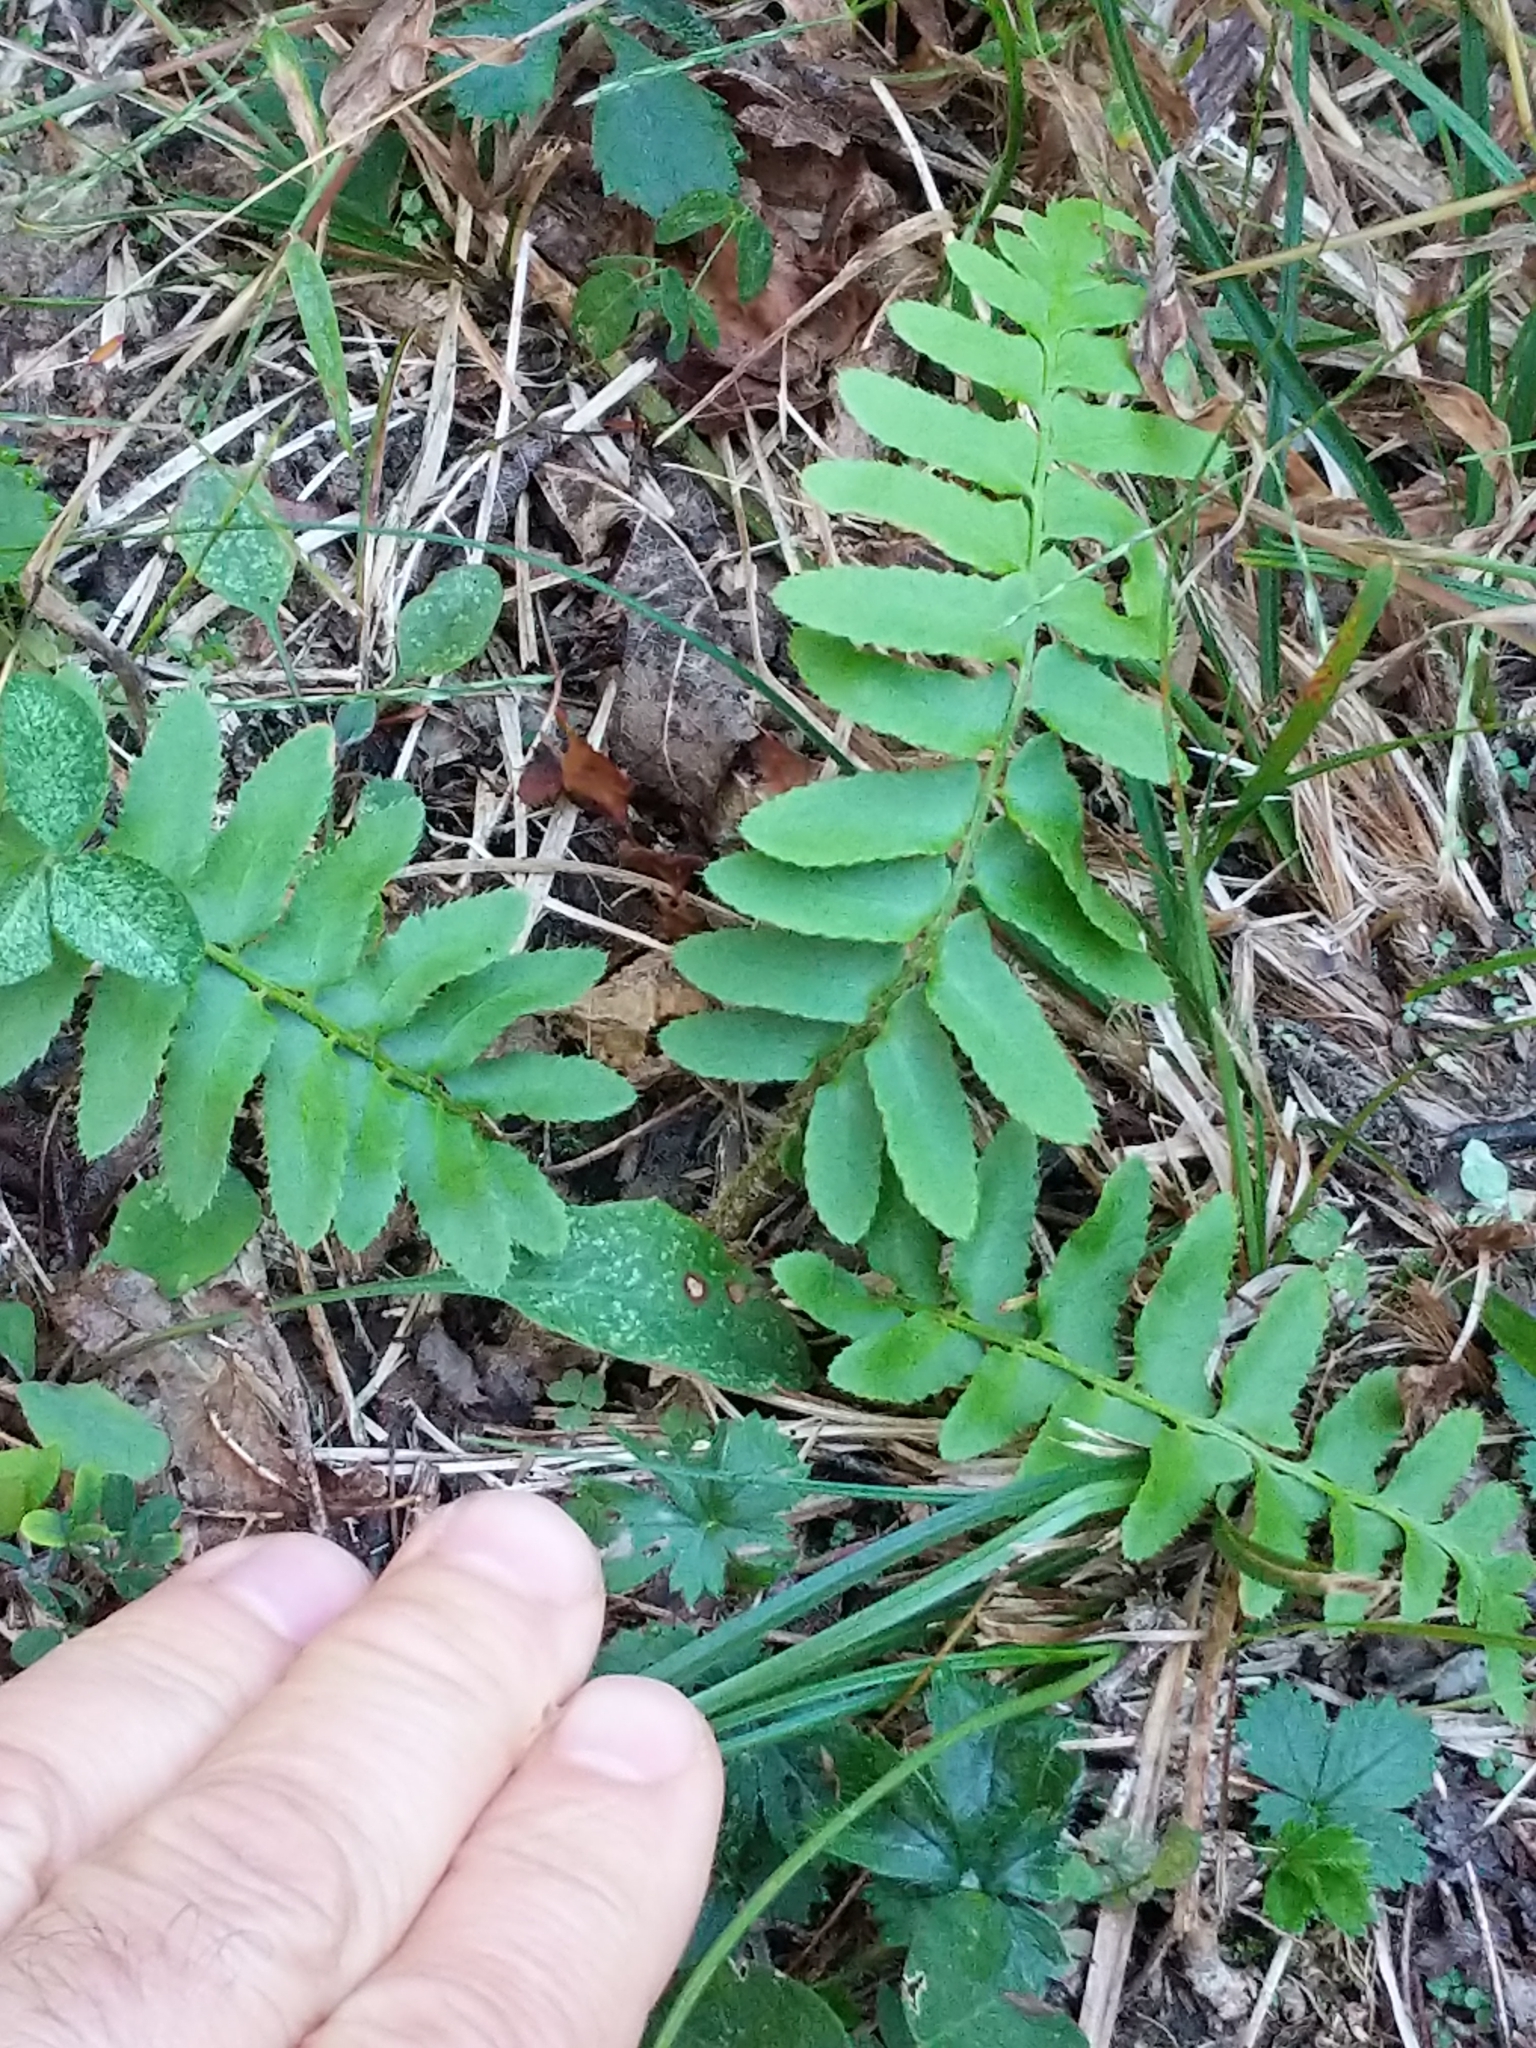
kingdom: Plantae
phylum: Tracheophyta
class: Polypodiopsida
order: Polypodiales
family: Dryopteridaceae
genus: Polystichum
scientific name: Polystichum acrostichoides
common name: Christmas fern
